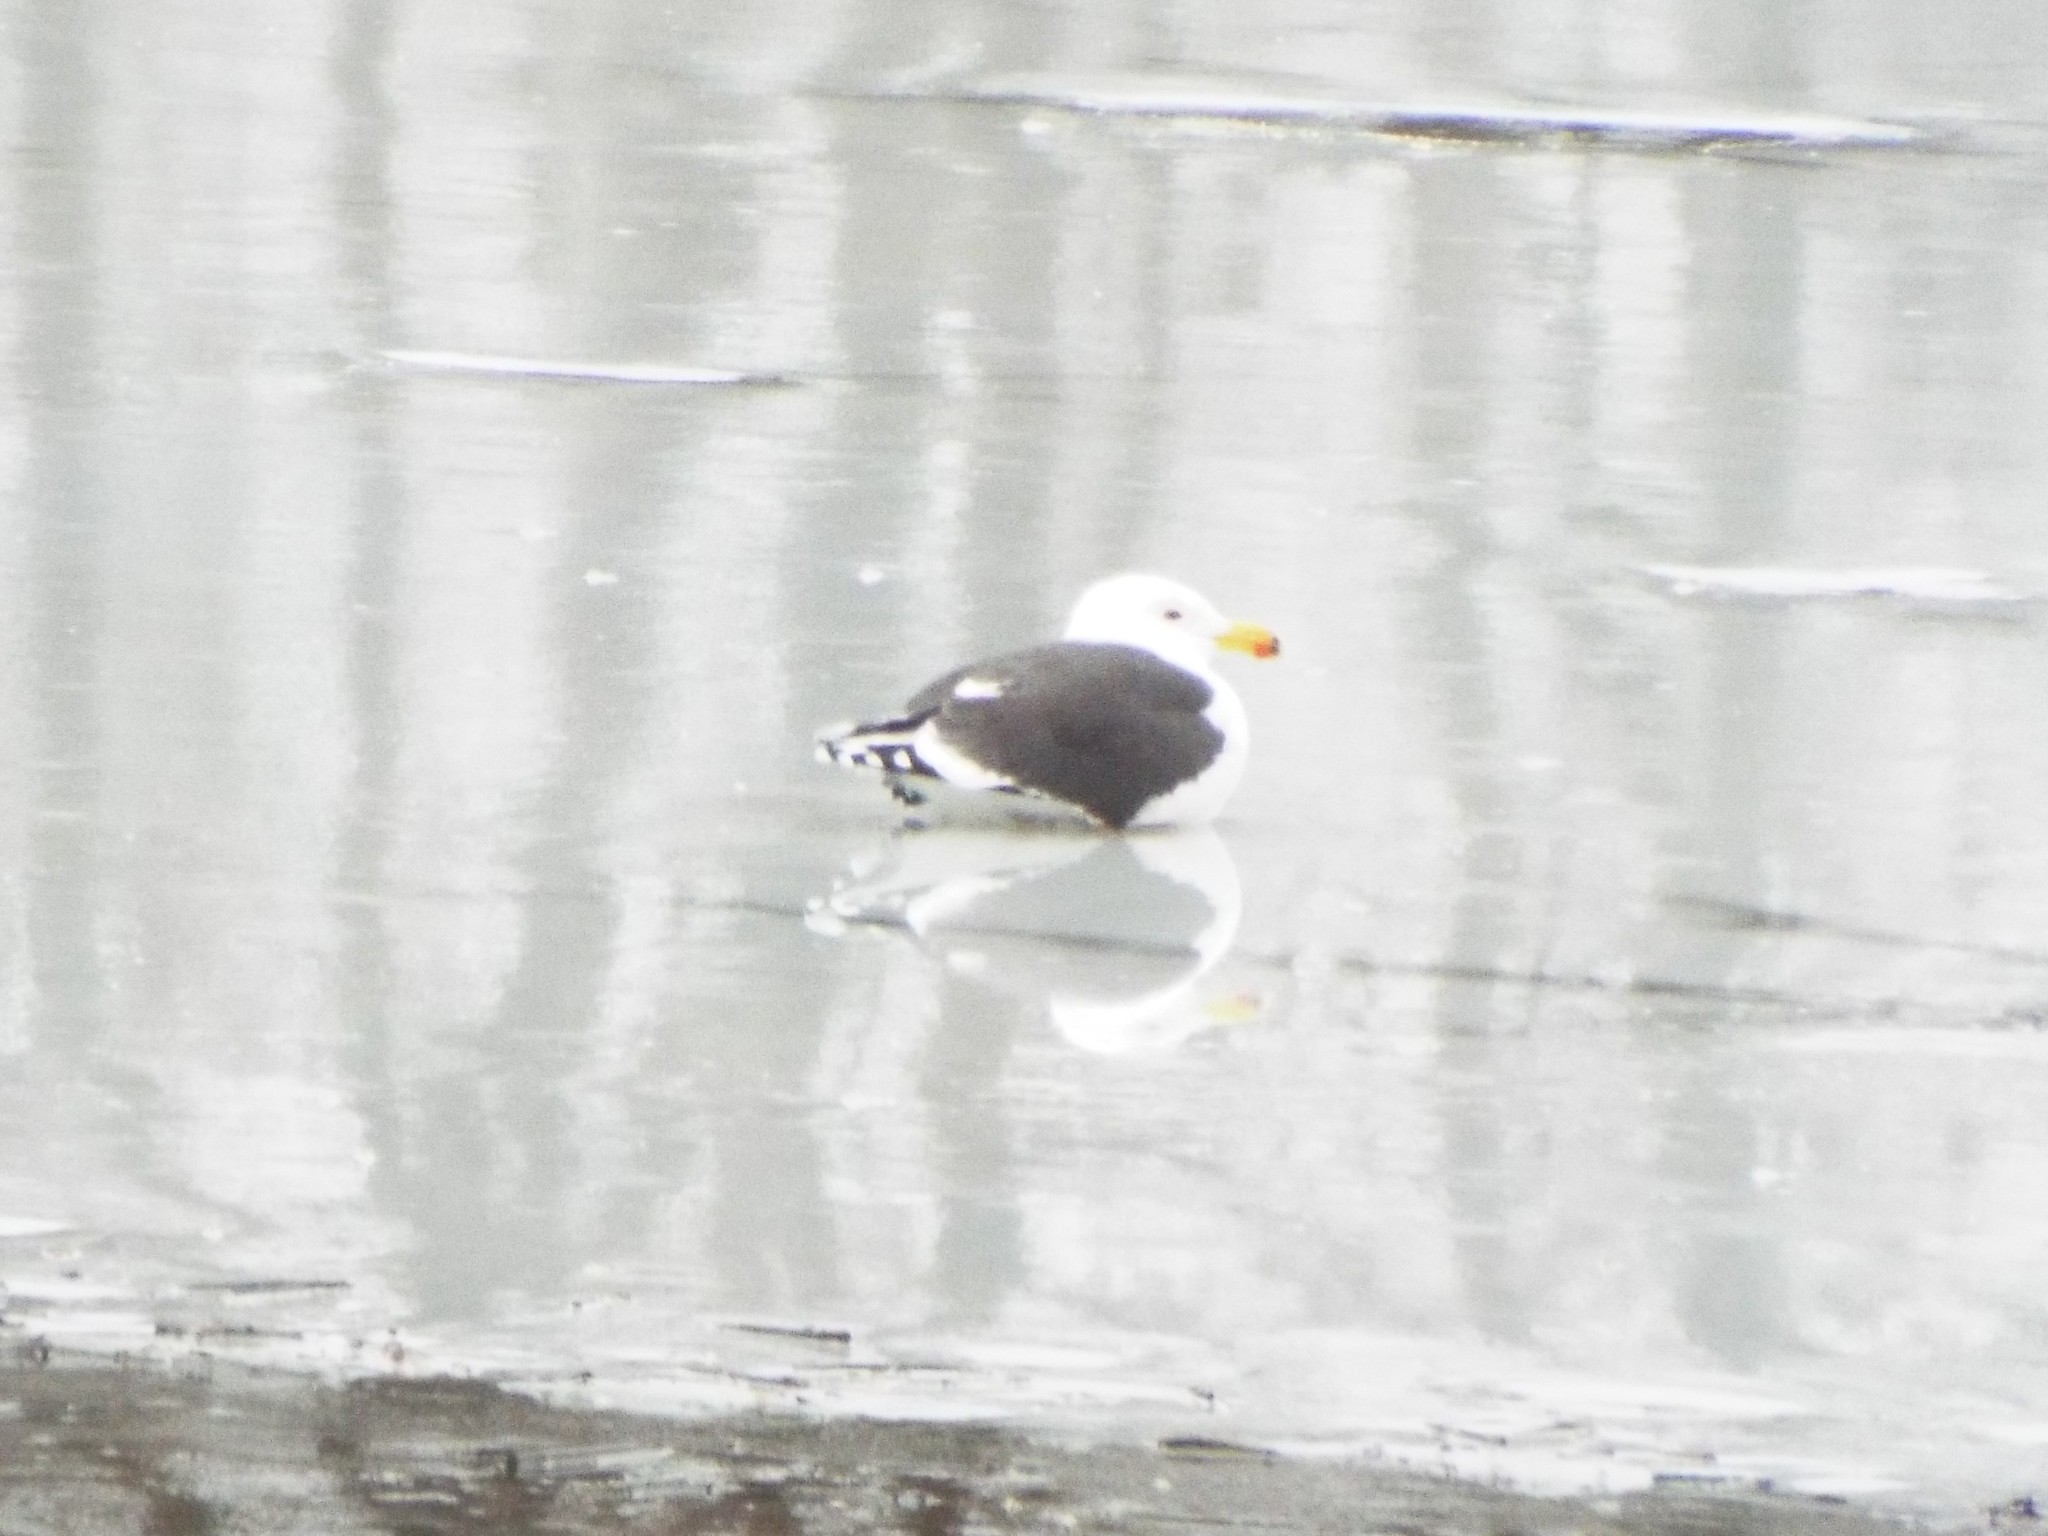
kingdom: Animalia
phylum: Chordata
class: Aves
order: Charadriiformes
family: Laridae
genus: Larus
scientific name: Larus marinus
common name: Great black-backed gull
